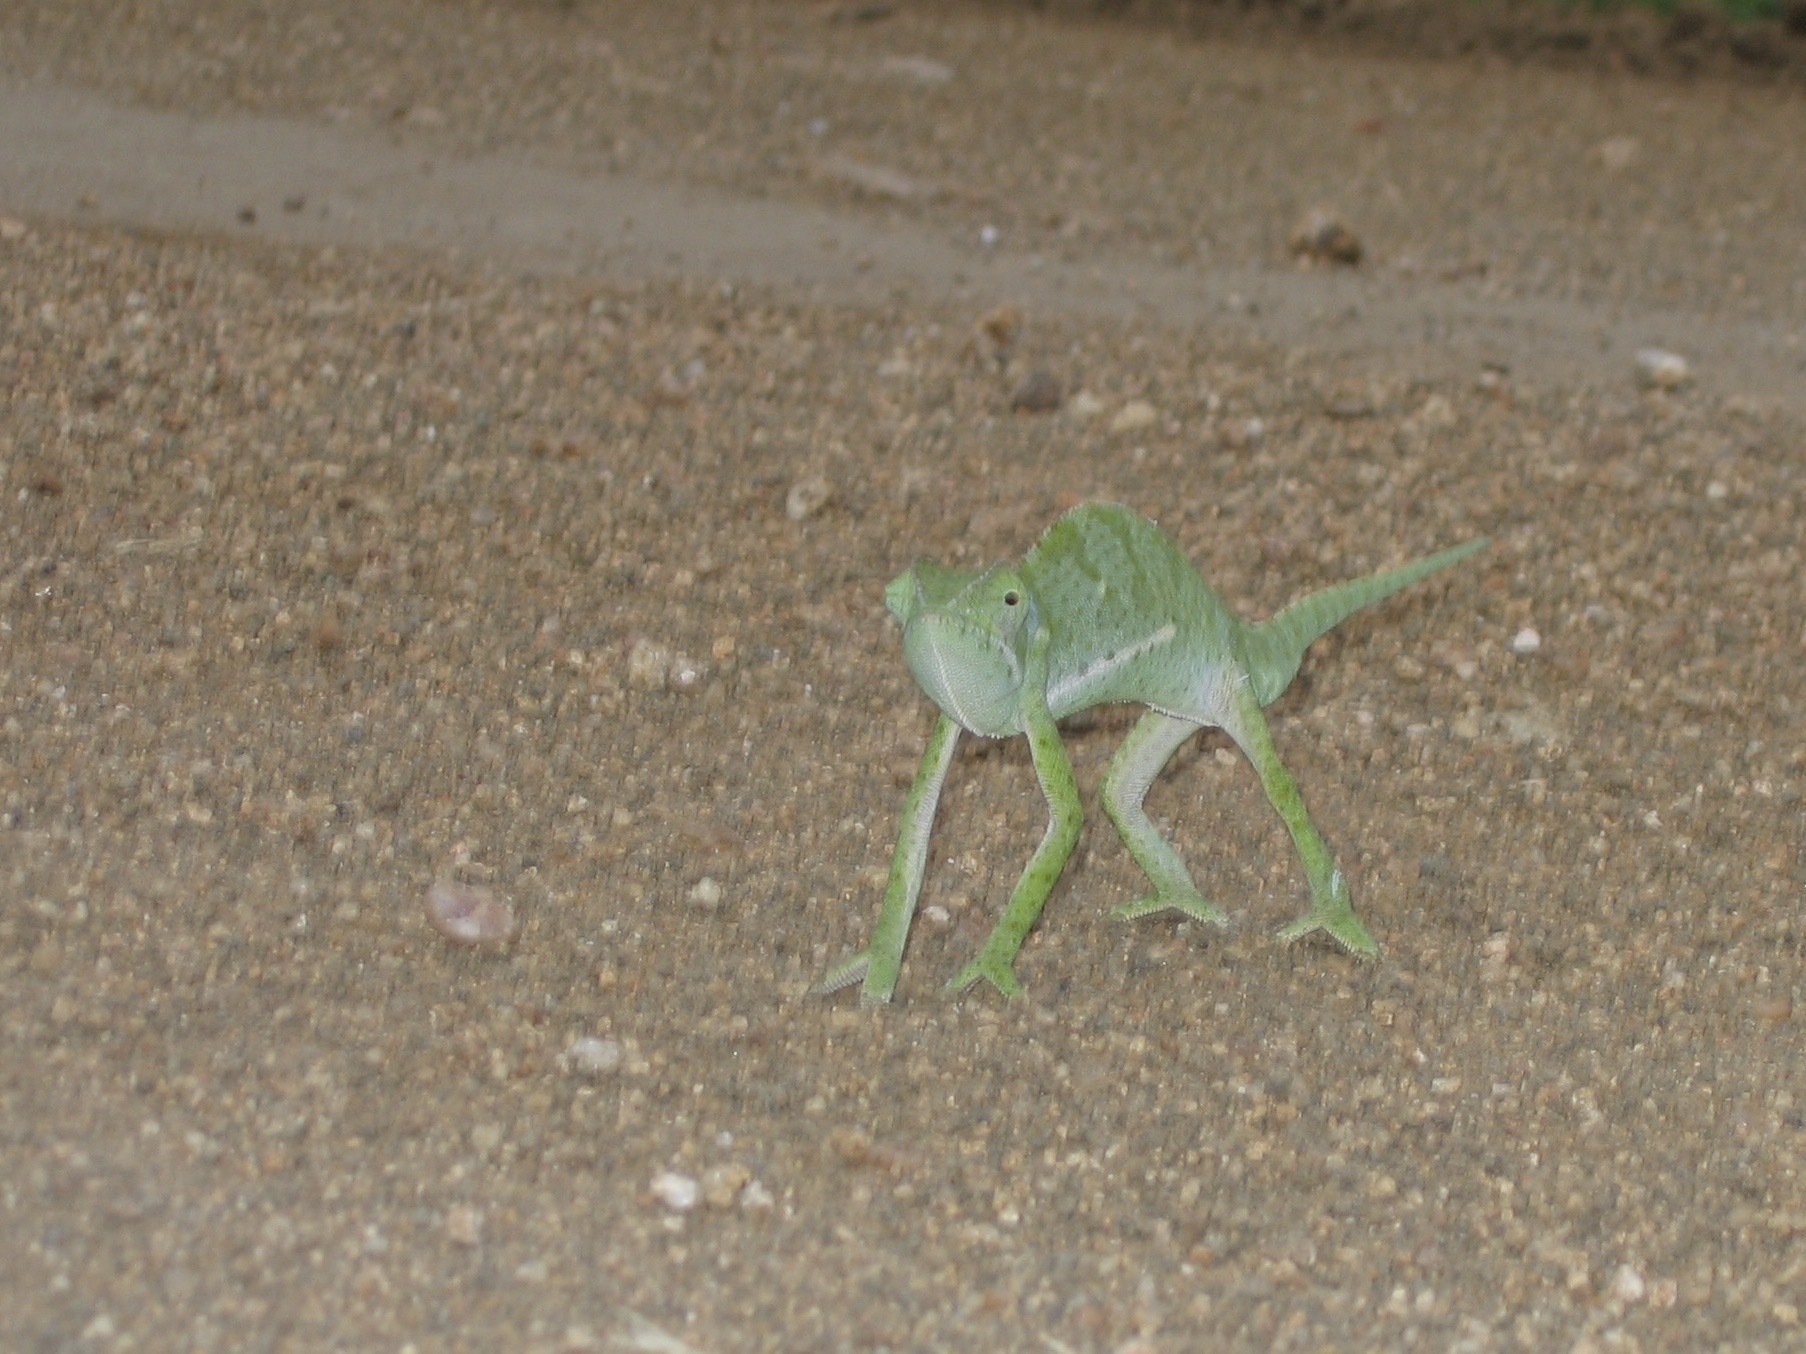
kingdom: Animalia
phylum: Chordata
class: Squamata
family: Chamaeleonidae
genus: Chamaeleo
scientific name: Chamaeleo dilepis
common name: Flapneck chameleon
